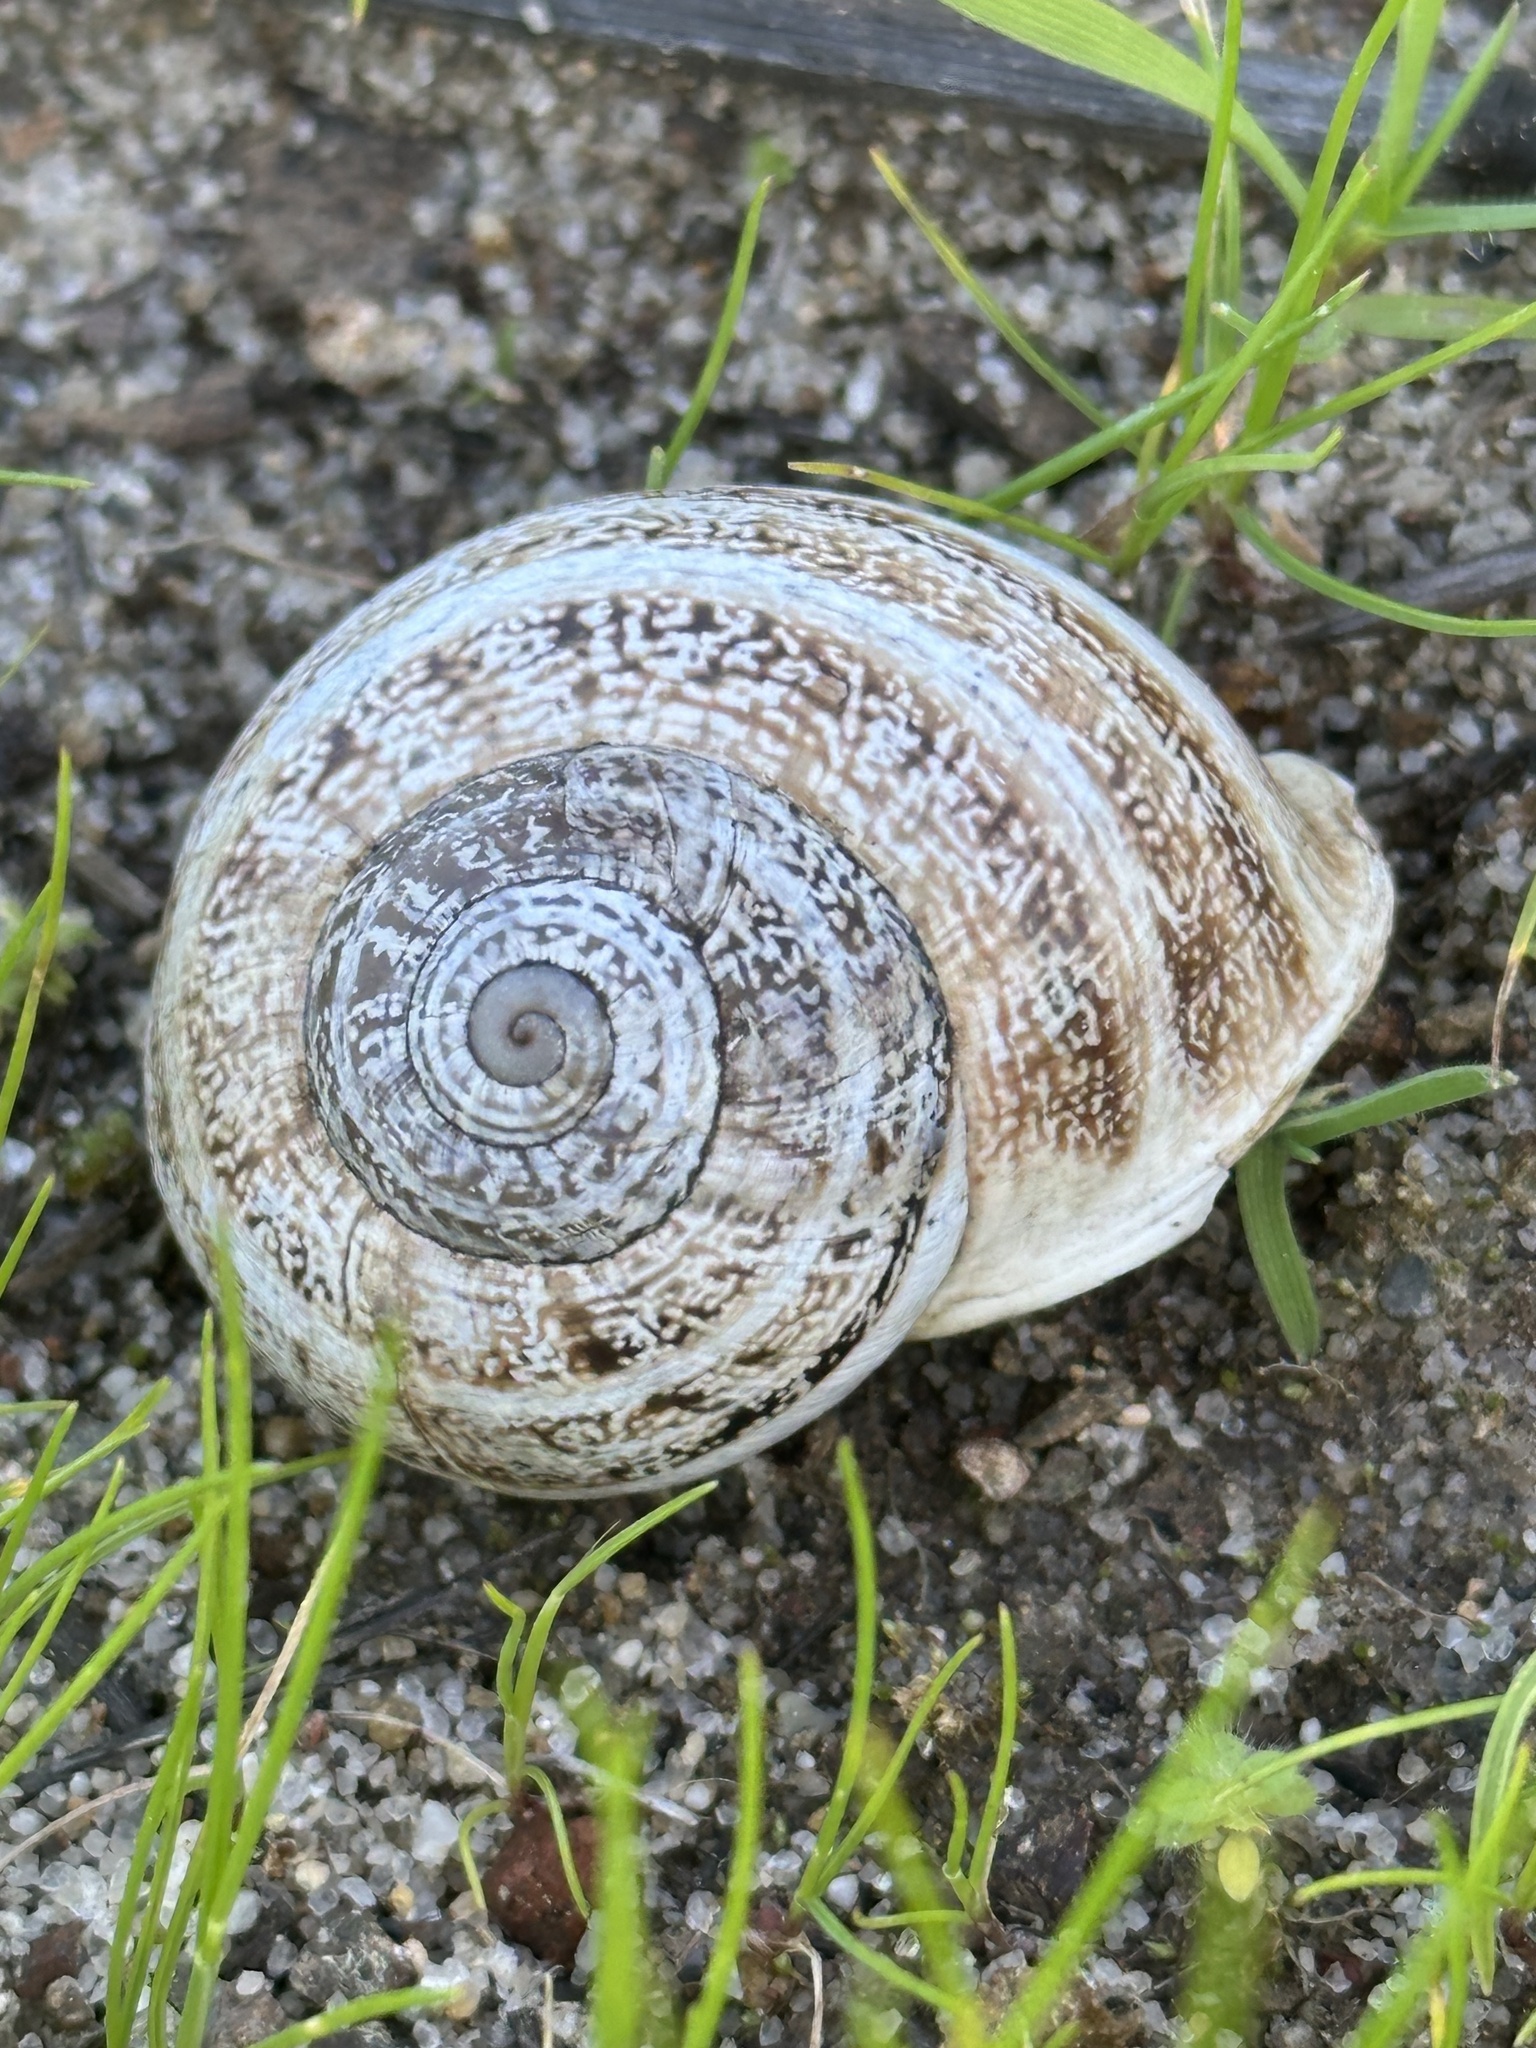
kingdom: Animalia
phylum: Mollusca
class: Gastropoda
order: Stylommatophora
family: Helicidae
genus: Otala
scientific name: Otala lactea
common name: Milk snail
